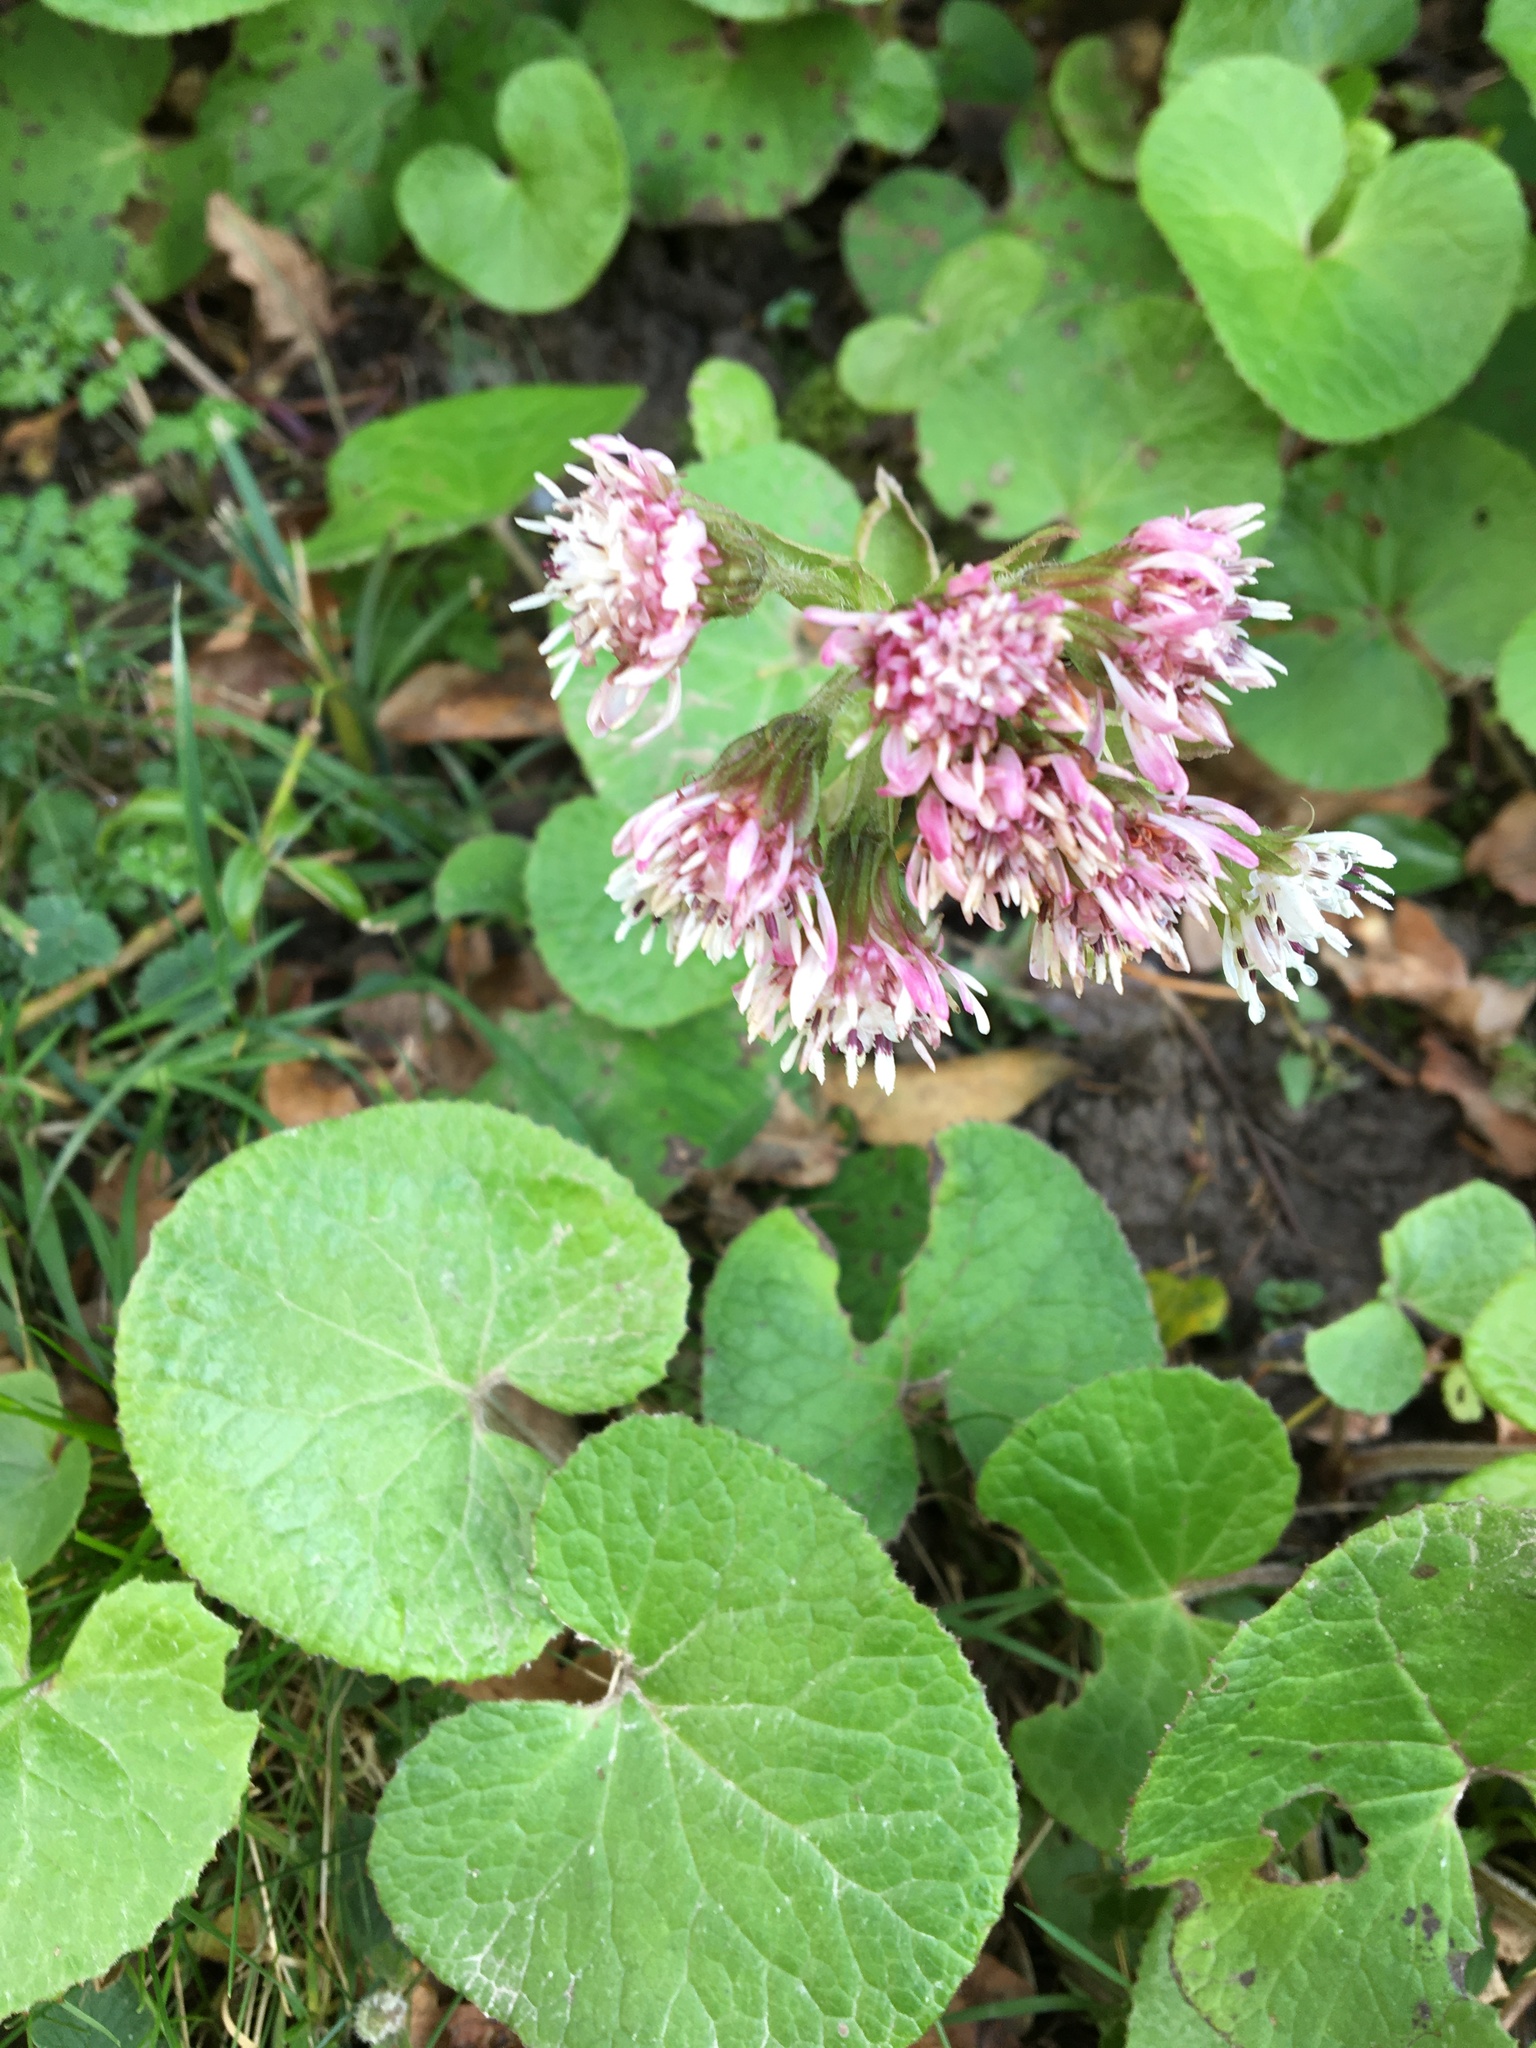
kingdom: Plantae
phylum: Tracheophyta
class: Magnoliopsida
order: Asterales
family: Asteraceae
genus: Petasites
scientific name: Petasites pyrenaicus
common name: Winter heliotrope
